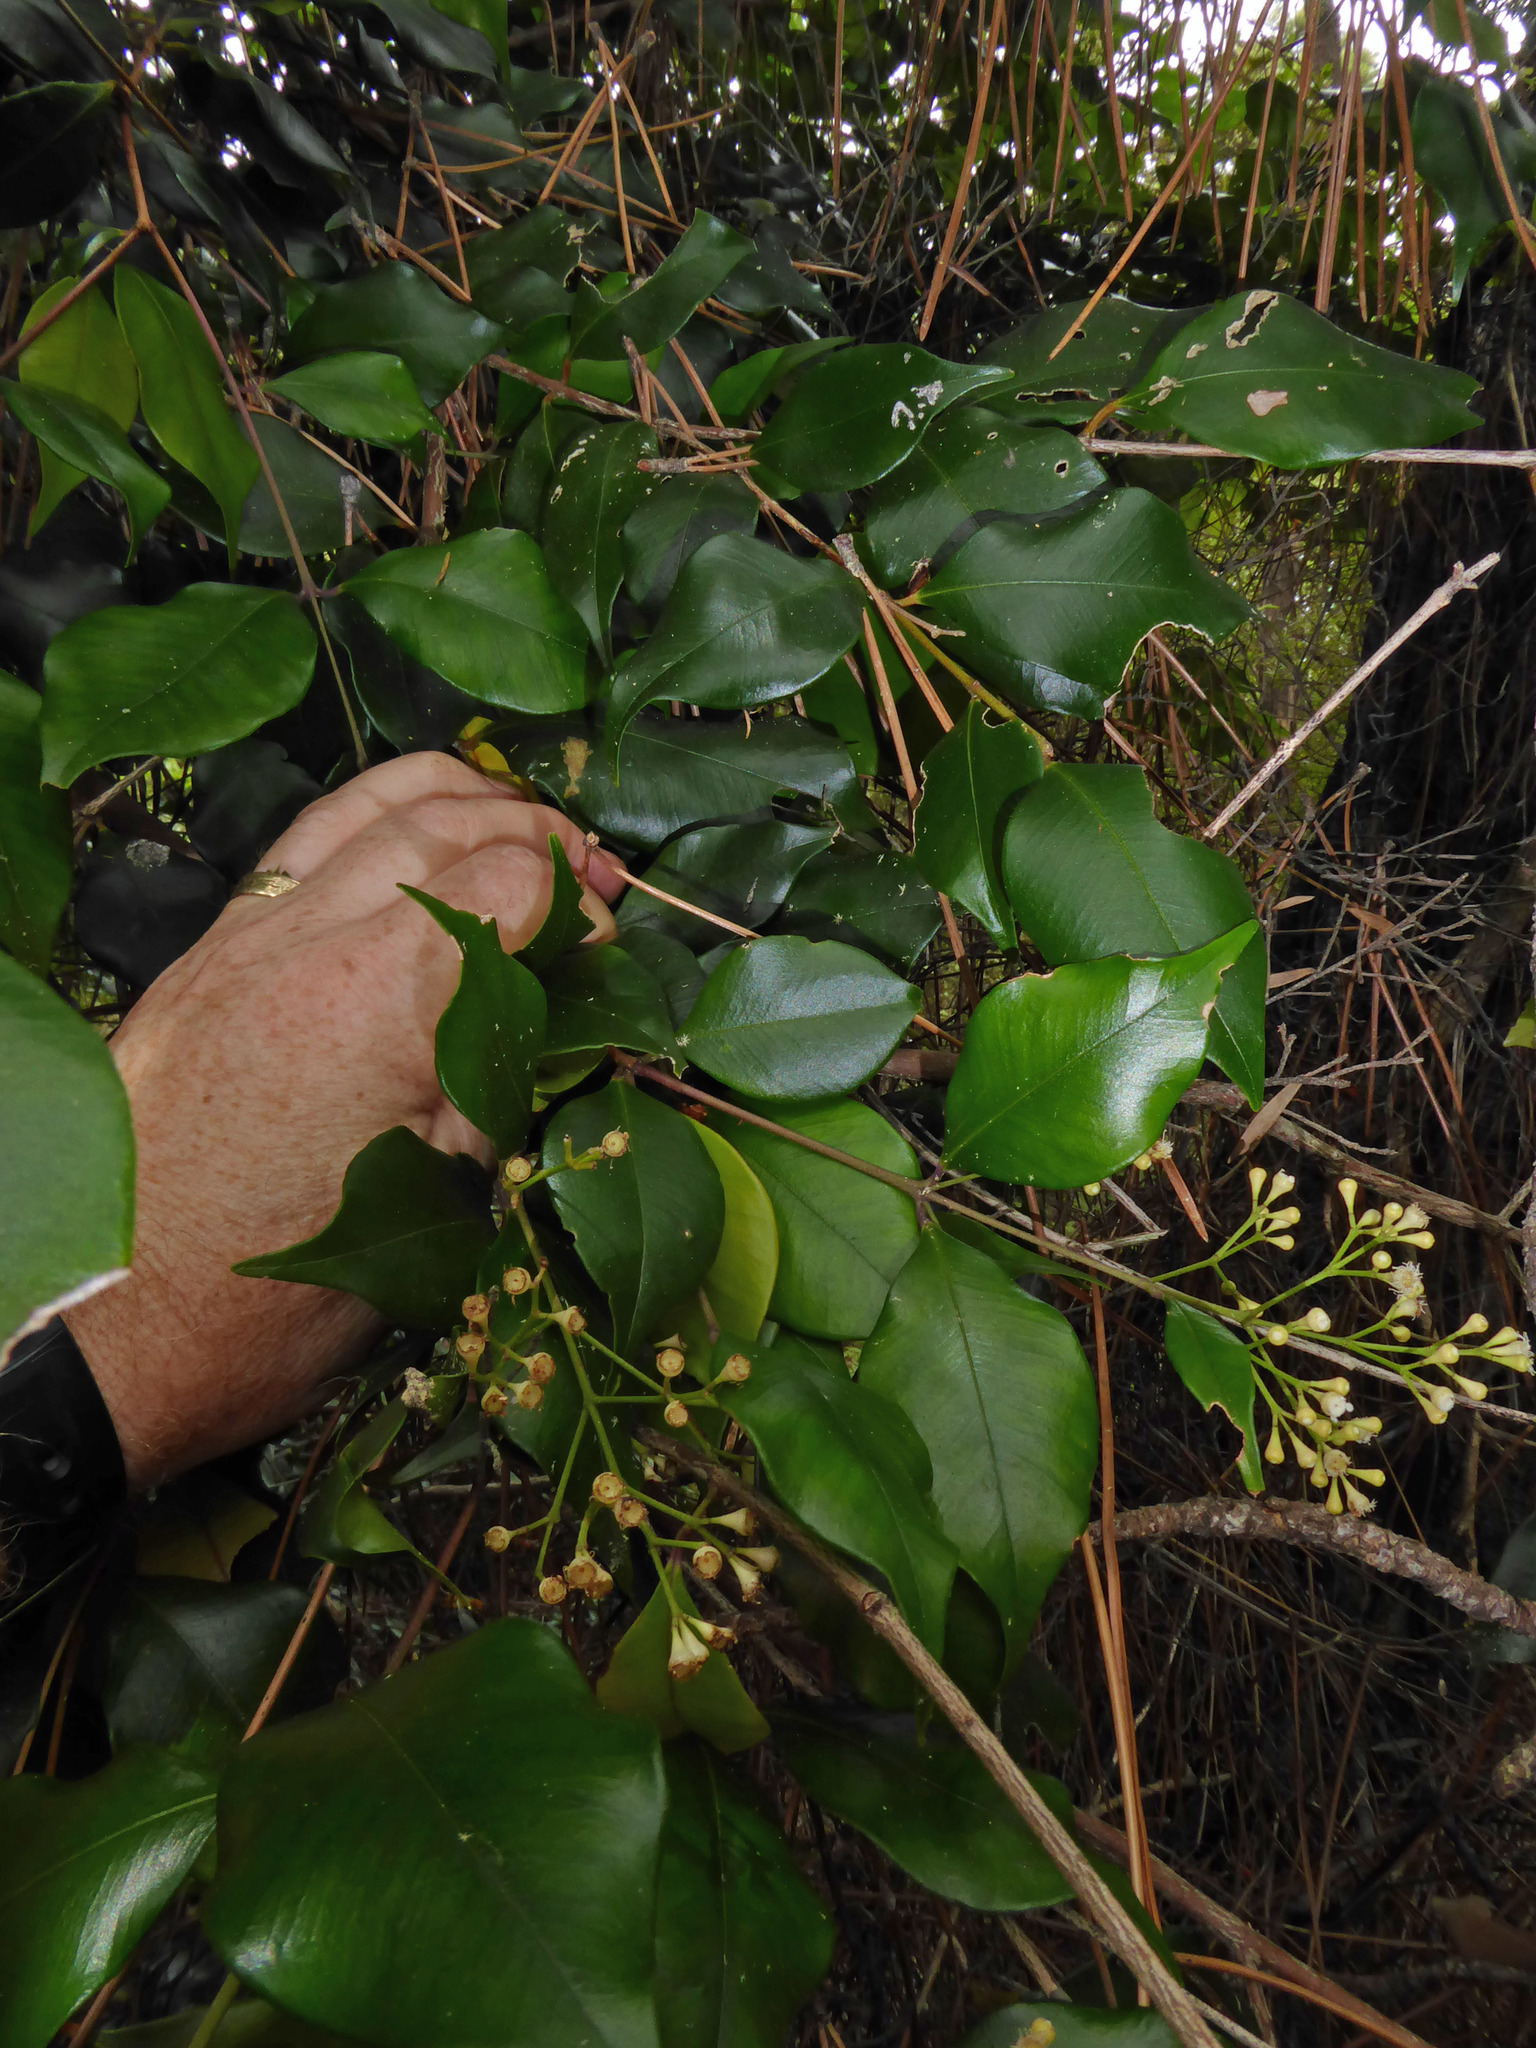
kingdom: Plantae
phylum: Tracheophyta
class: Magnoliopsida
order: Myrtales
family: Myrtaceae
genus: Syzygium
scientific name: Syzygium smithii
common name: Lilly-pilly
